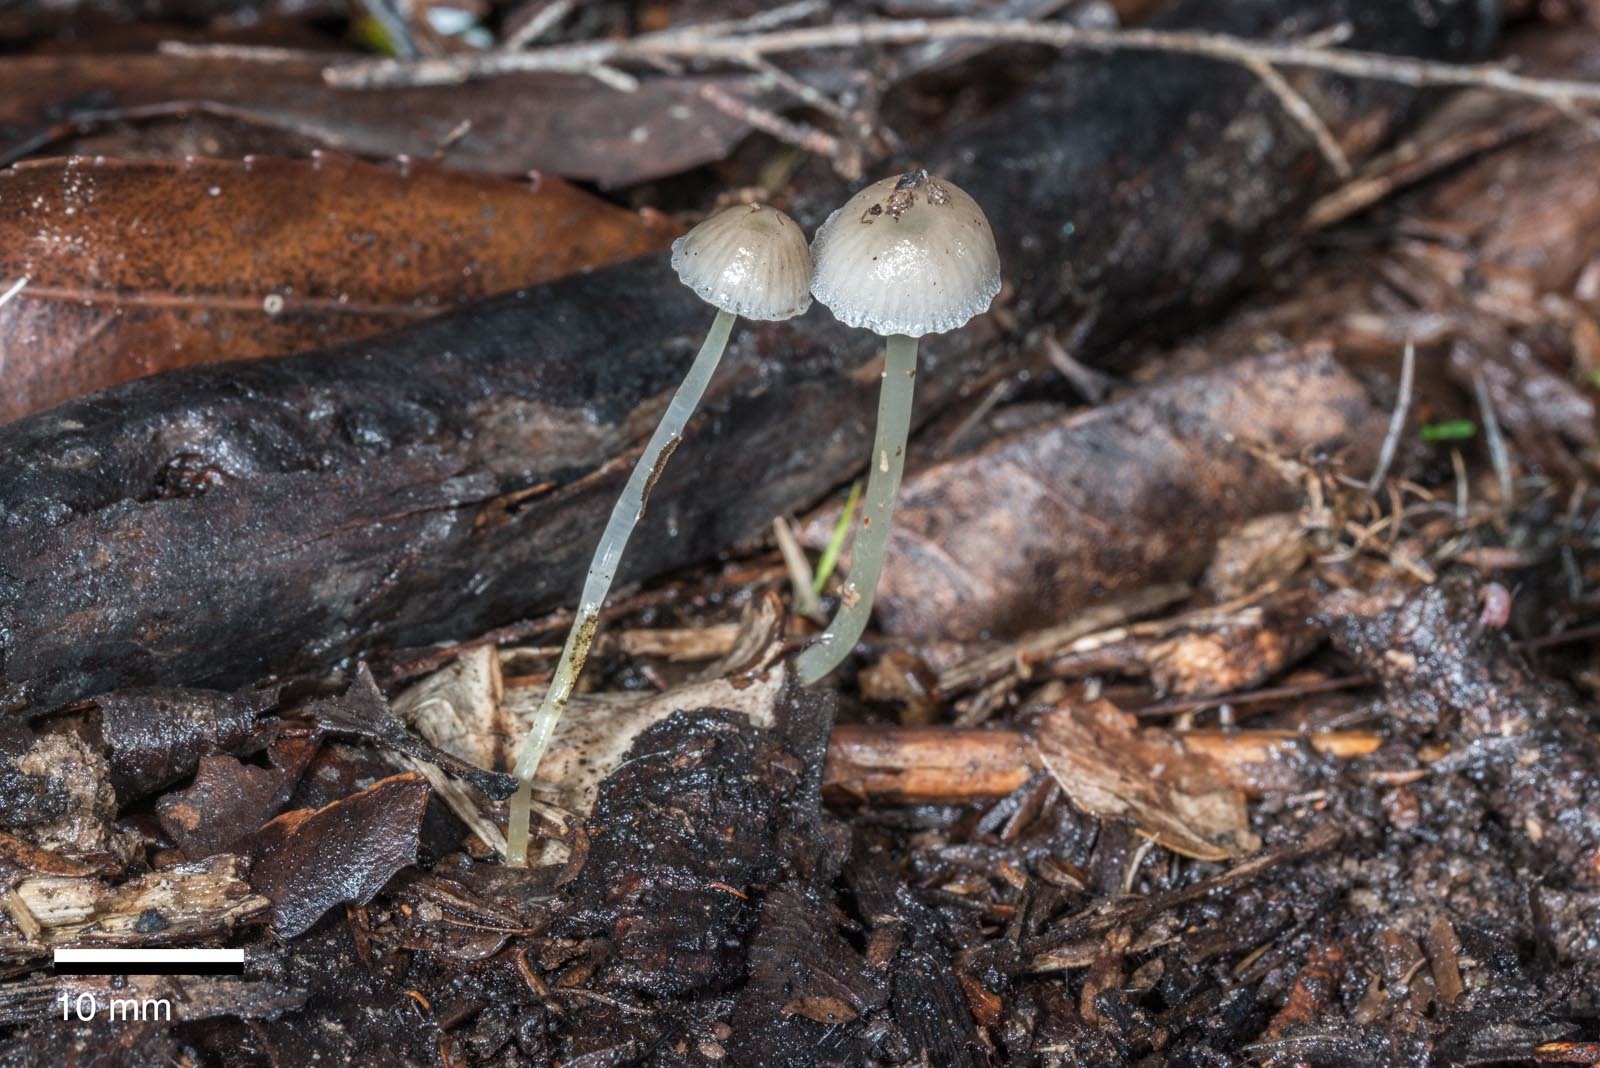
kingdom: Fungi
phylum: Basidiomycota
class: Agaricomycetes
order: Agaricales
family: Mycenaceae
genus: Mycena
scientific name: Mycena subviscosa
